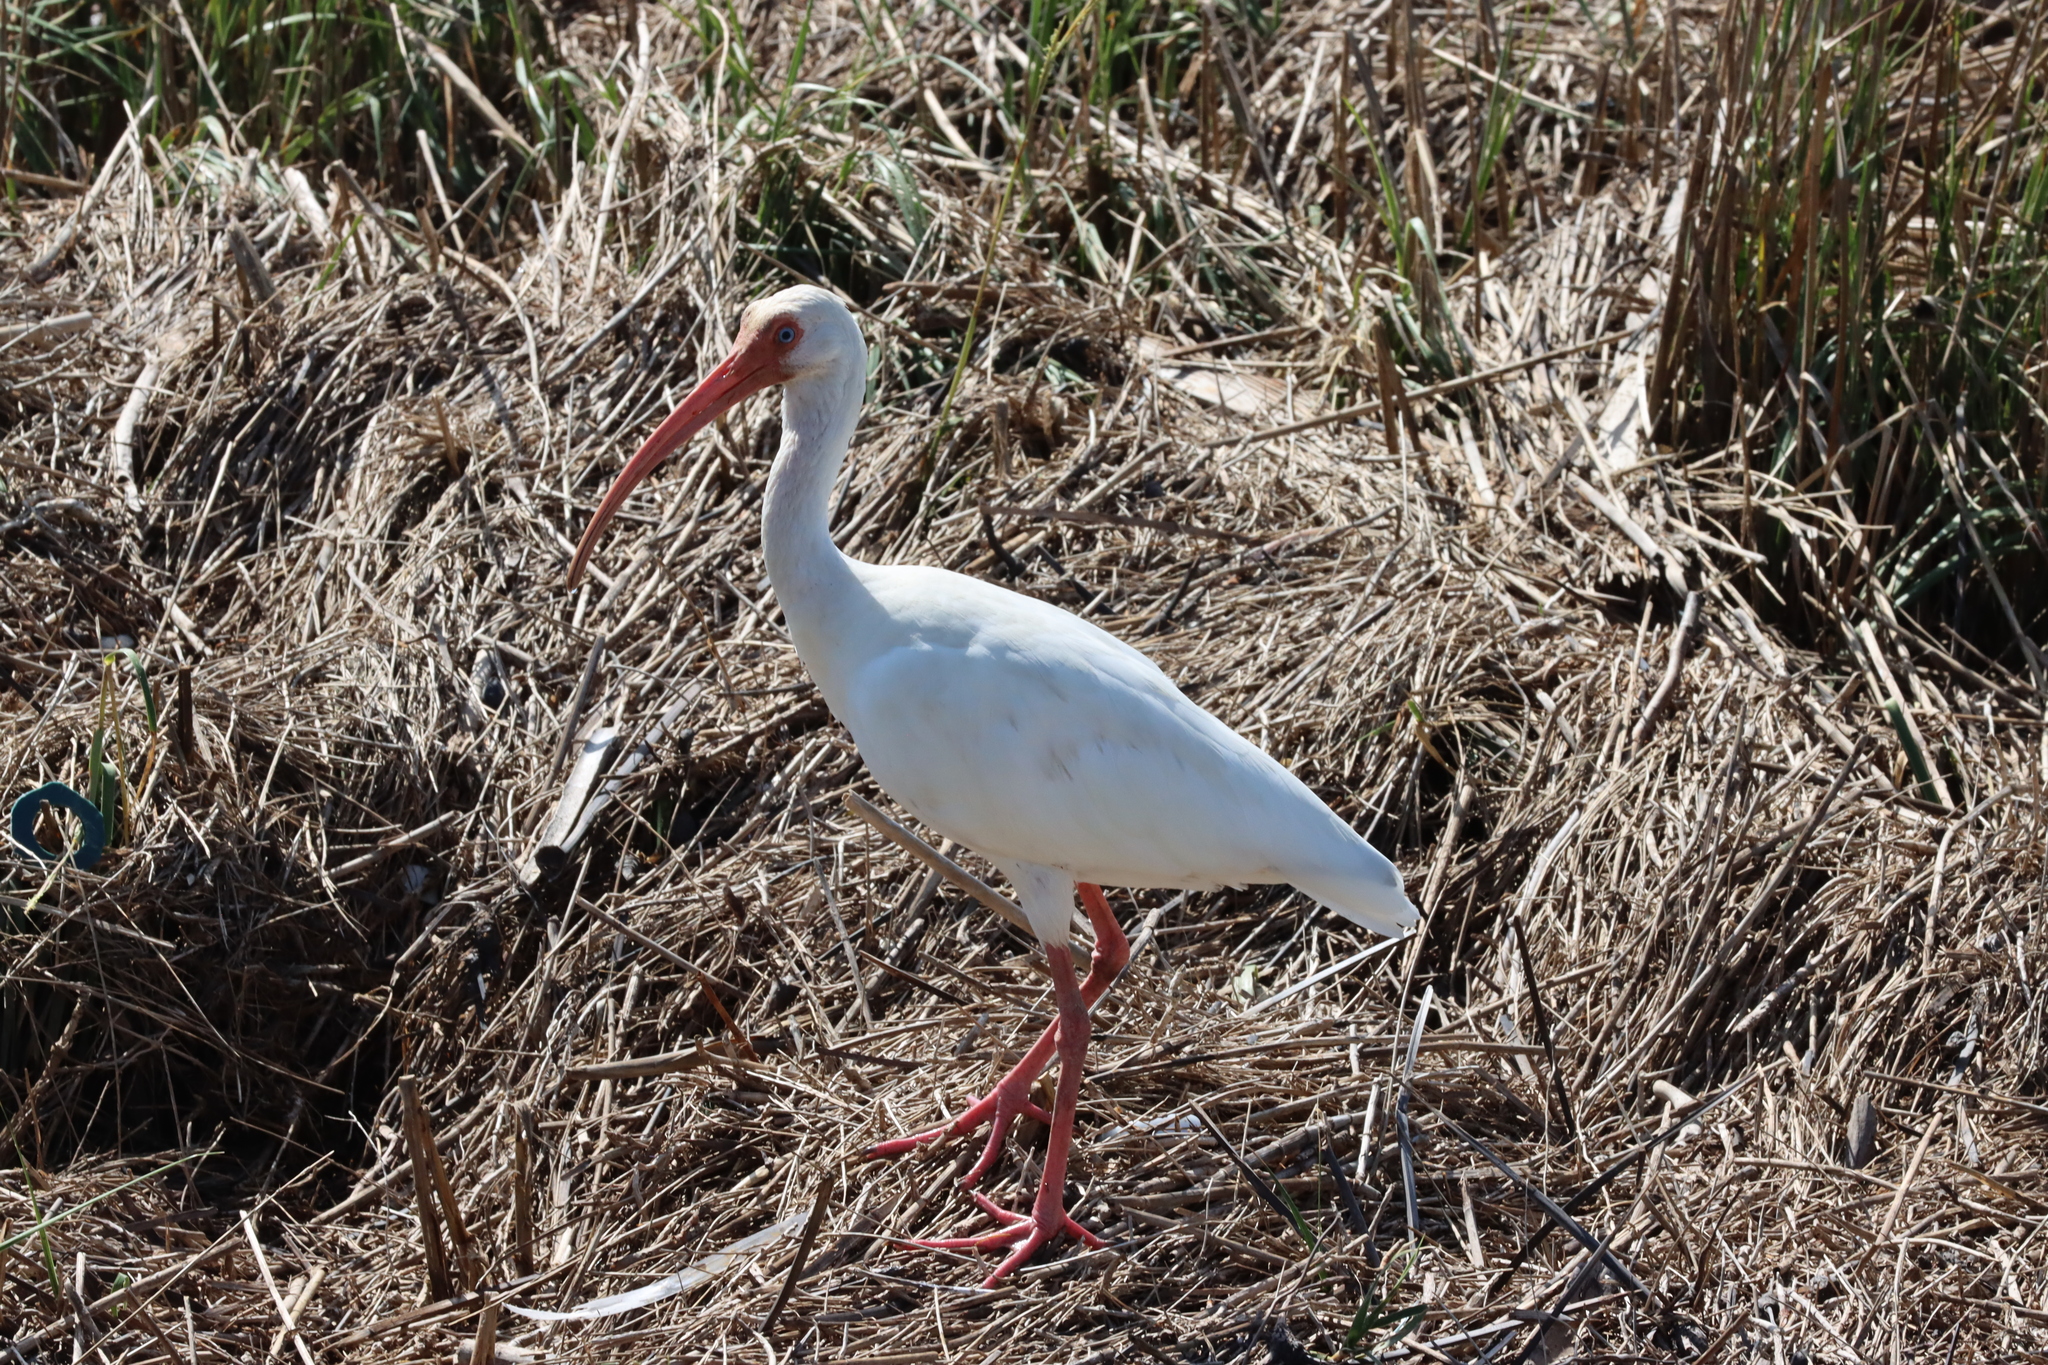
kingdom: Animalia
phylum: Chordata
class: Aves
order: Pelecaniformes
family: Threskiornithidae
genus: Eudocimus
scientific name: Eudocimus albus
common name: White ibis
